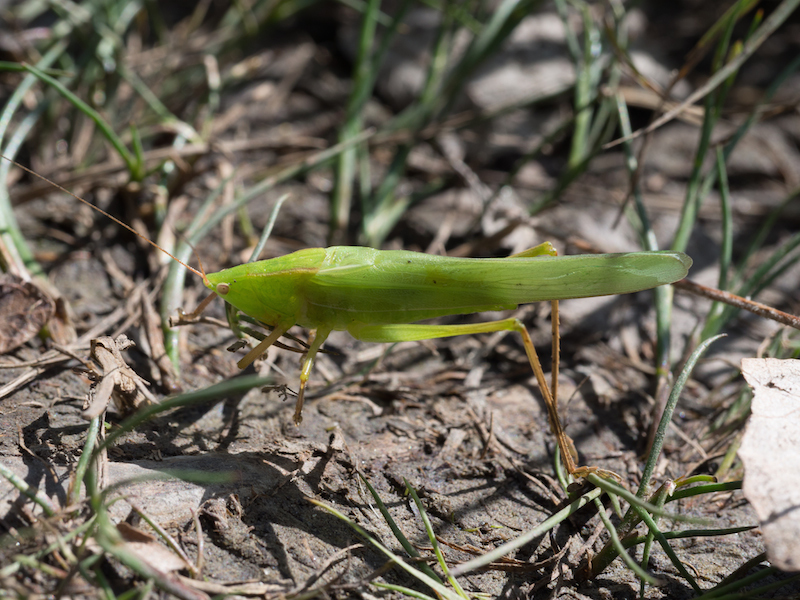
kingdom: Animalia
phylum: Arthropoda
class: Insecta
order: Orthoptera
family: Tettigoniidae
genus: Ruspolia
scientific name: Ruspolia nitidula
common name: Large conehead
